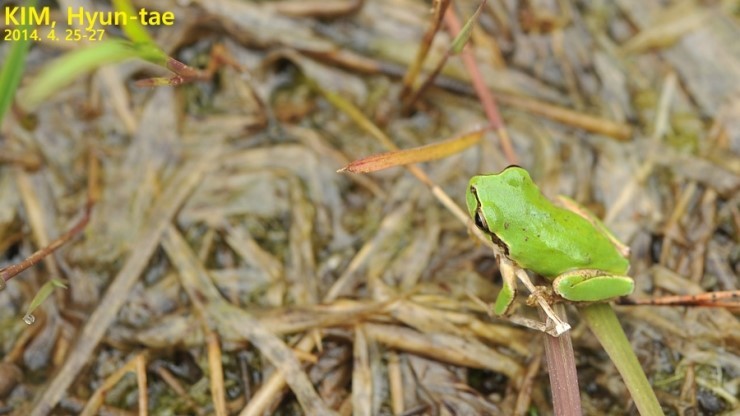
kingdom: Animalia
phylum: Chordata
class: Amphibia
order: Anura
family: Hylidae
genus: Dryophytes
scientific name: Dryophytes japonicus
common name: Japanese treefrog
